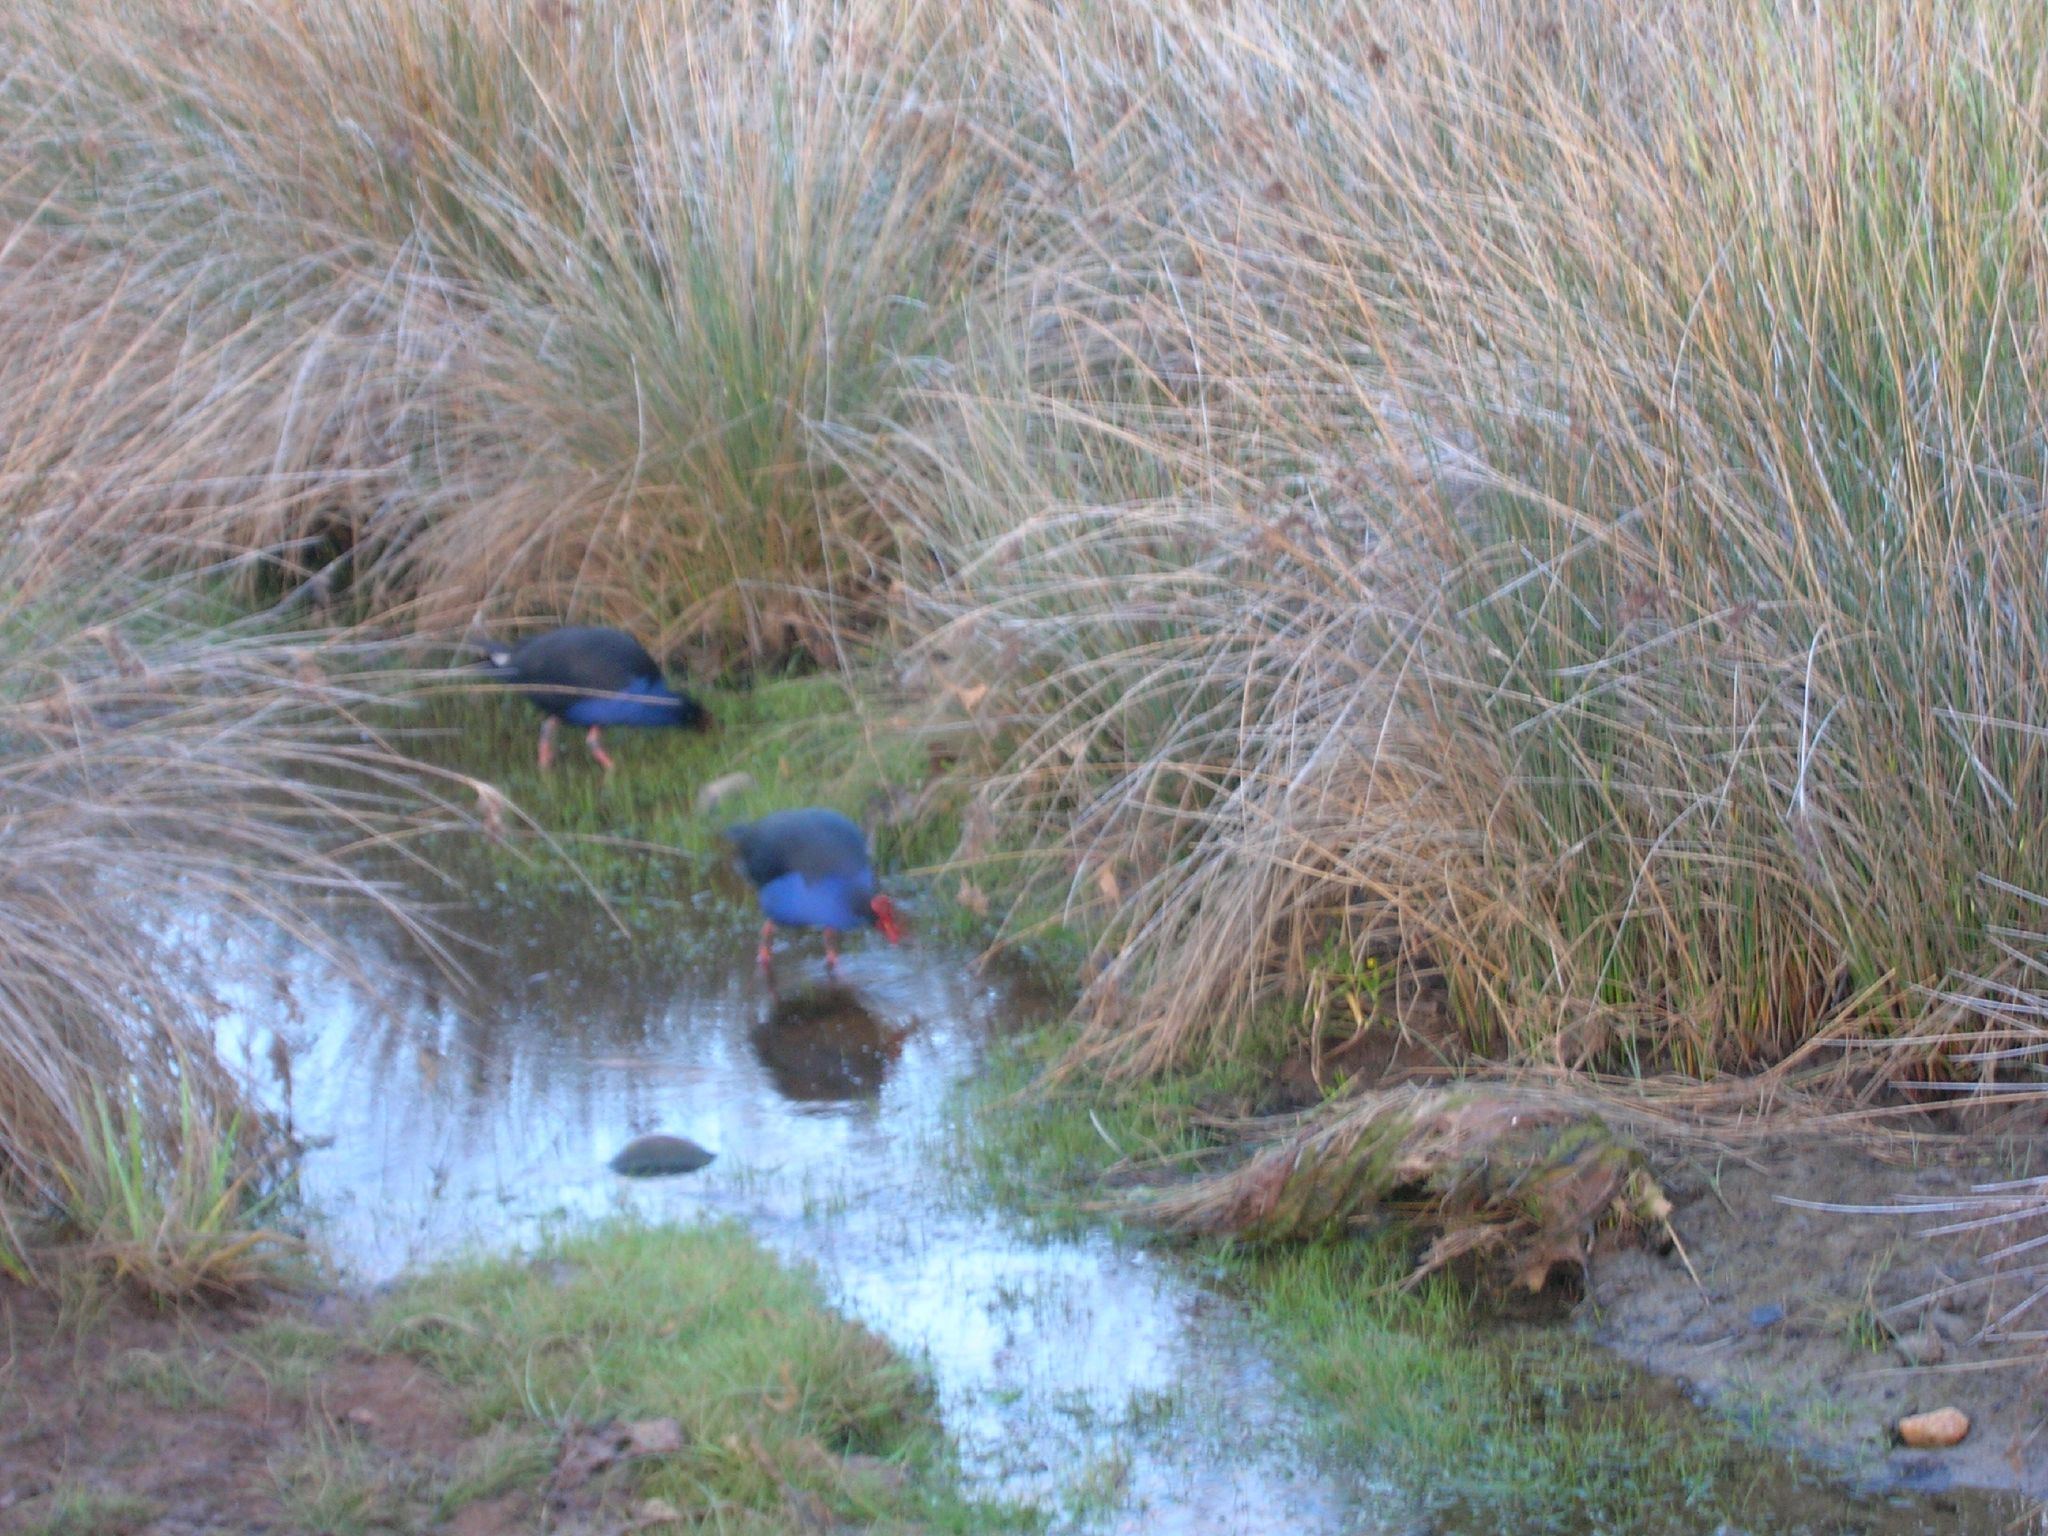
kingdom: Animalia
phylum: Chordata
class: Aves
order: Gruiformes
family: Rallidae
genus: Porphyrio
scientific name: Porphyrio melanotus
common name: Australasian swamphen
